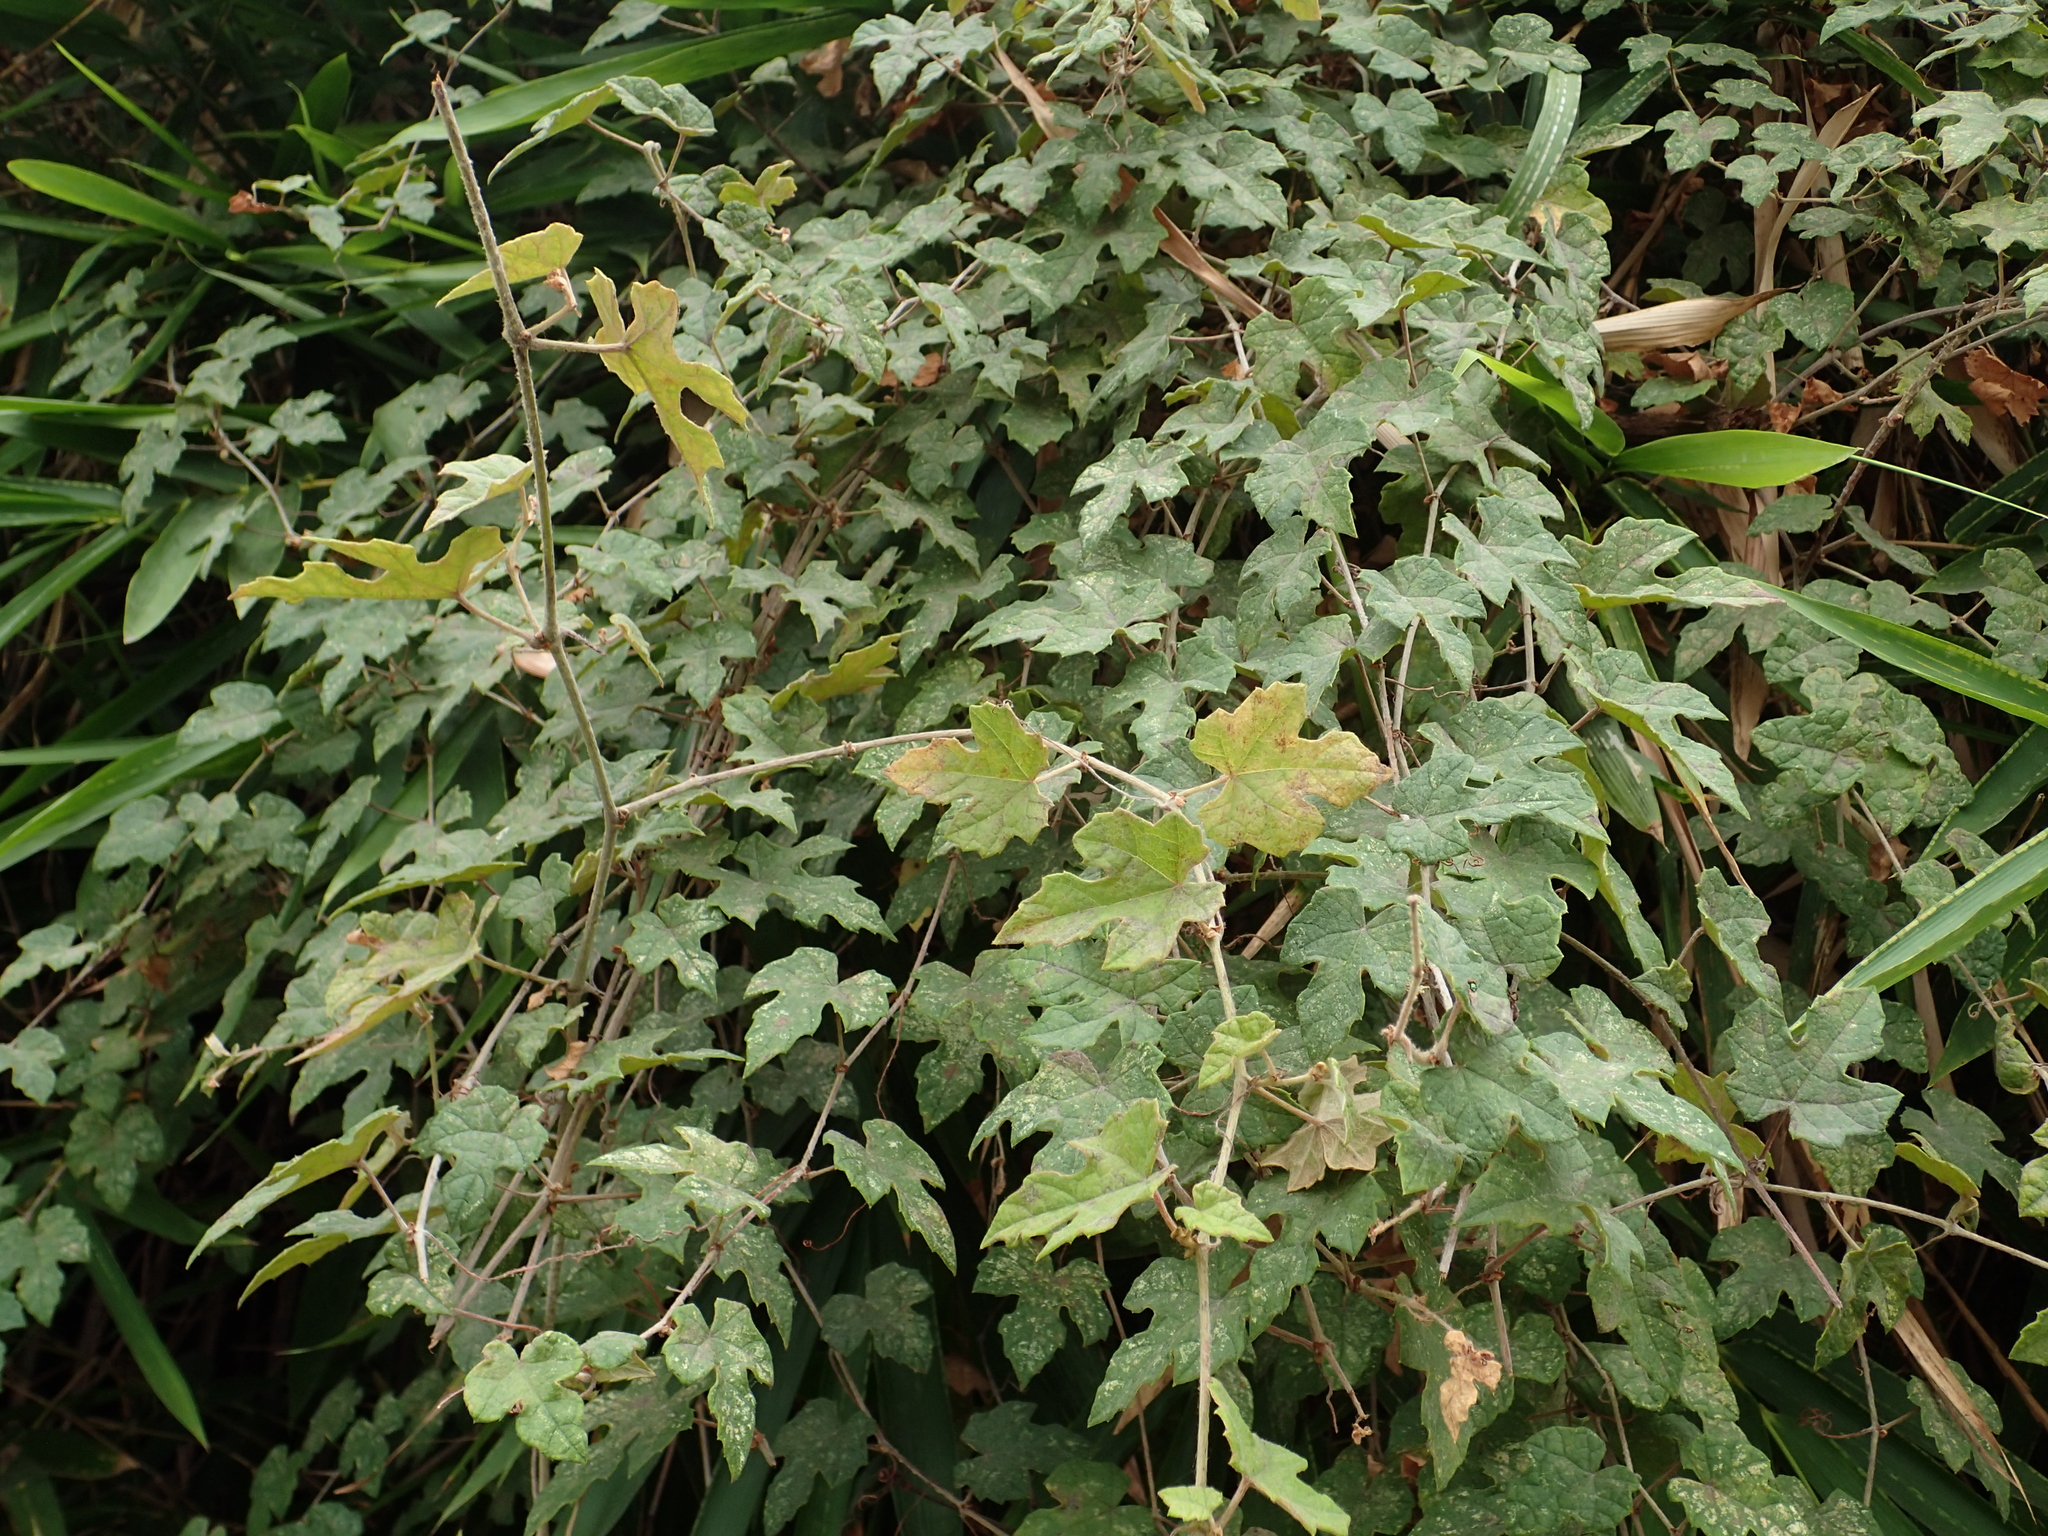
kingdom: Plantae
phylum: Tracheophyta
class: Magnoliopsida
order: Vitales
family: Vitaceae
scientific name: Vitaceae
